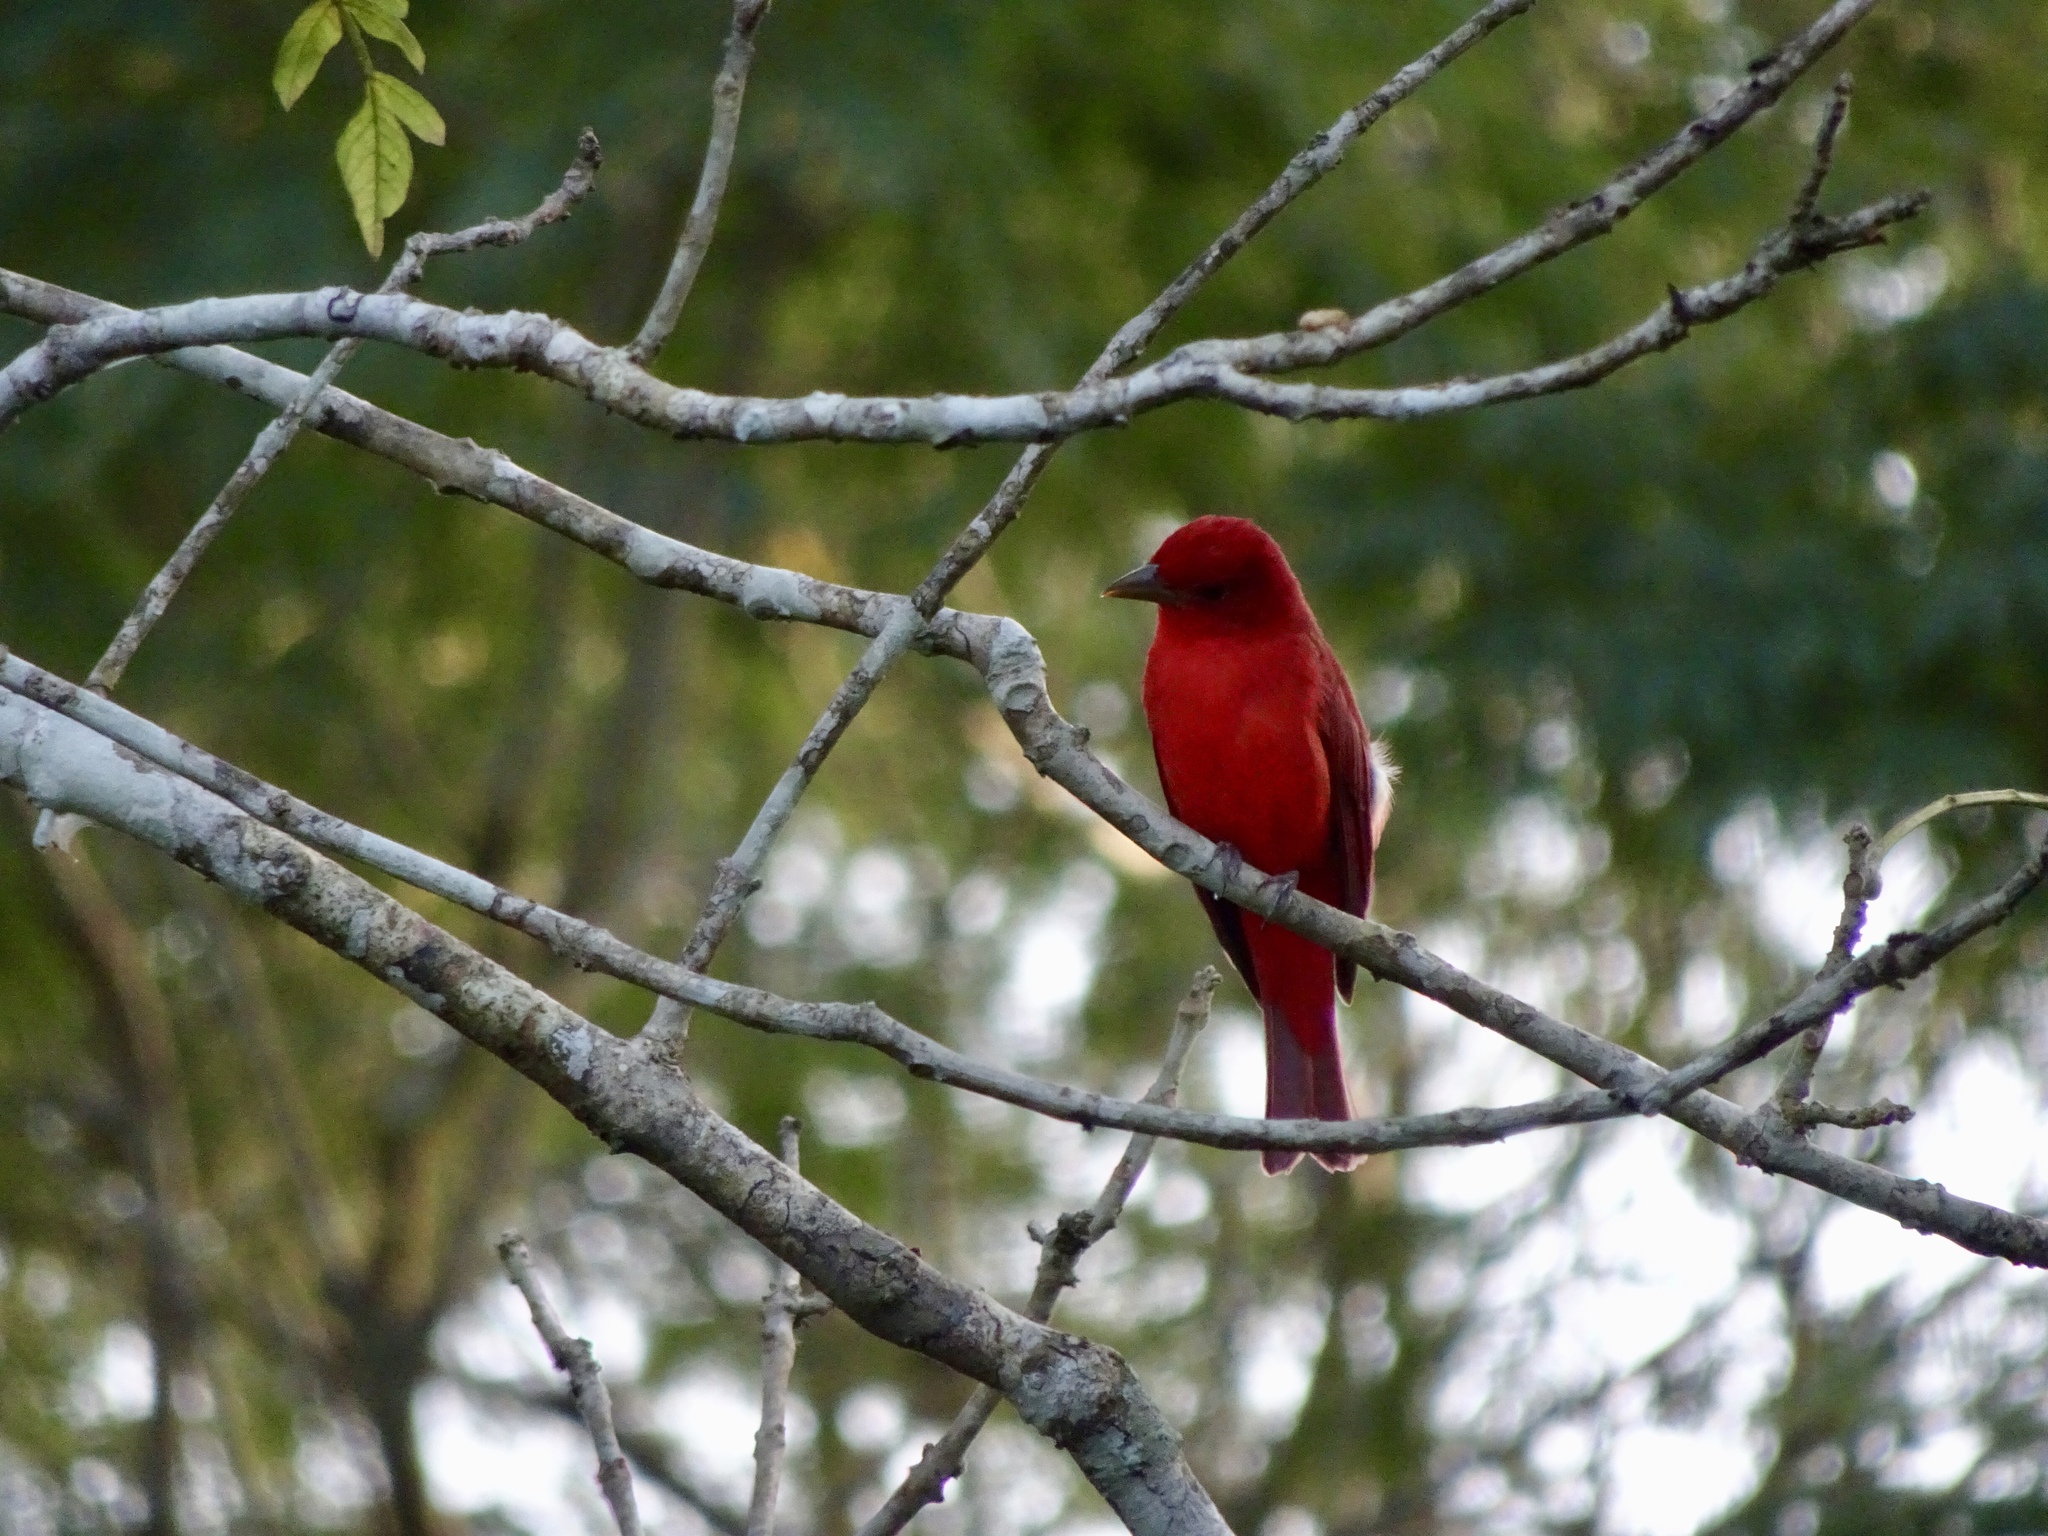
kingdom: Animalia
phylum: Chordata
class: Aves
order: Passeriformes
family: Cardinalidae
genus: Piranga
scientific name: Piranga rubra
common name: Summer tanager
